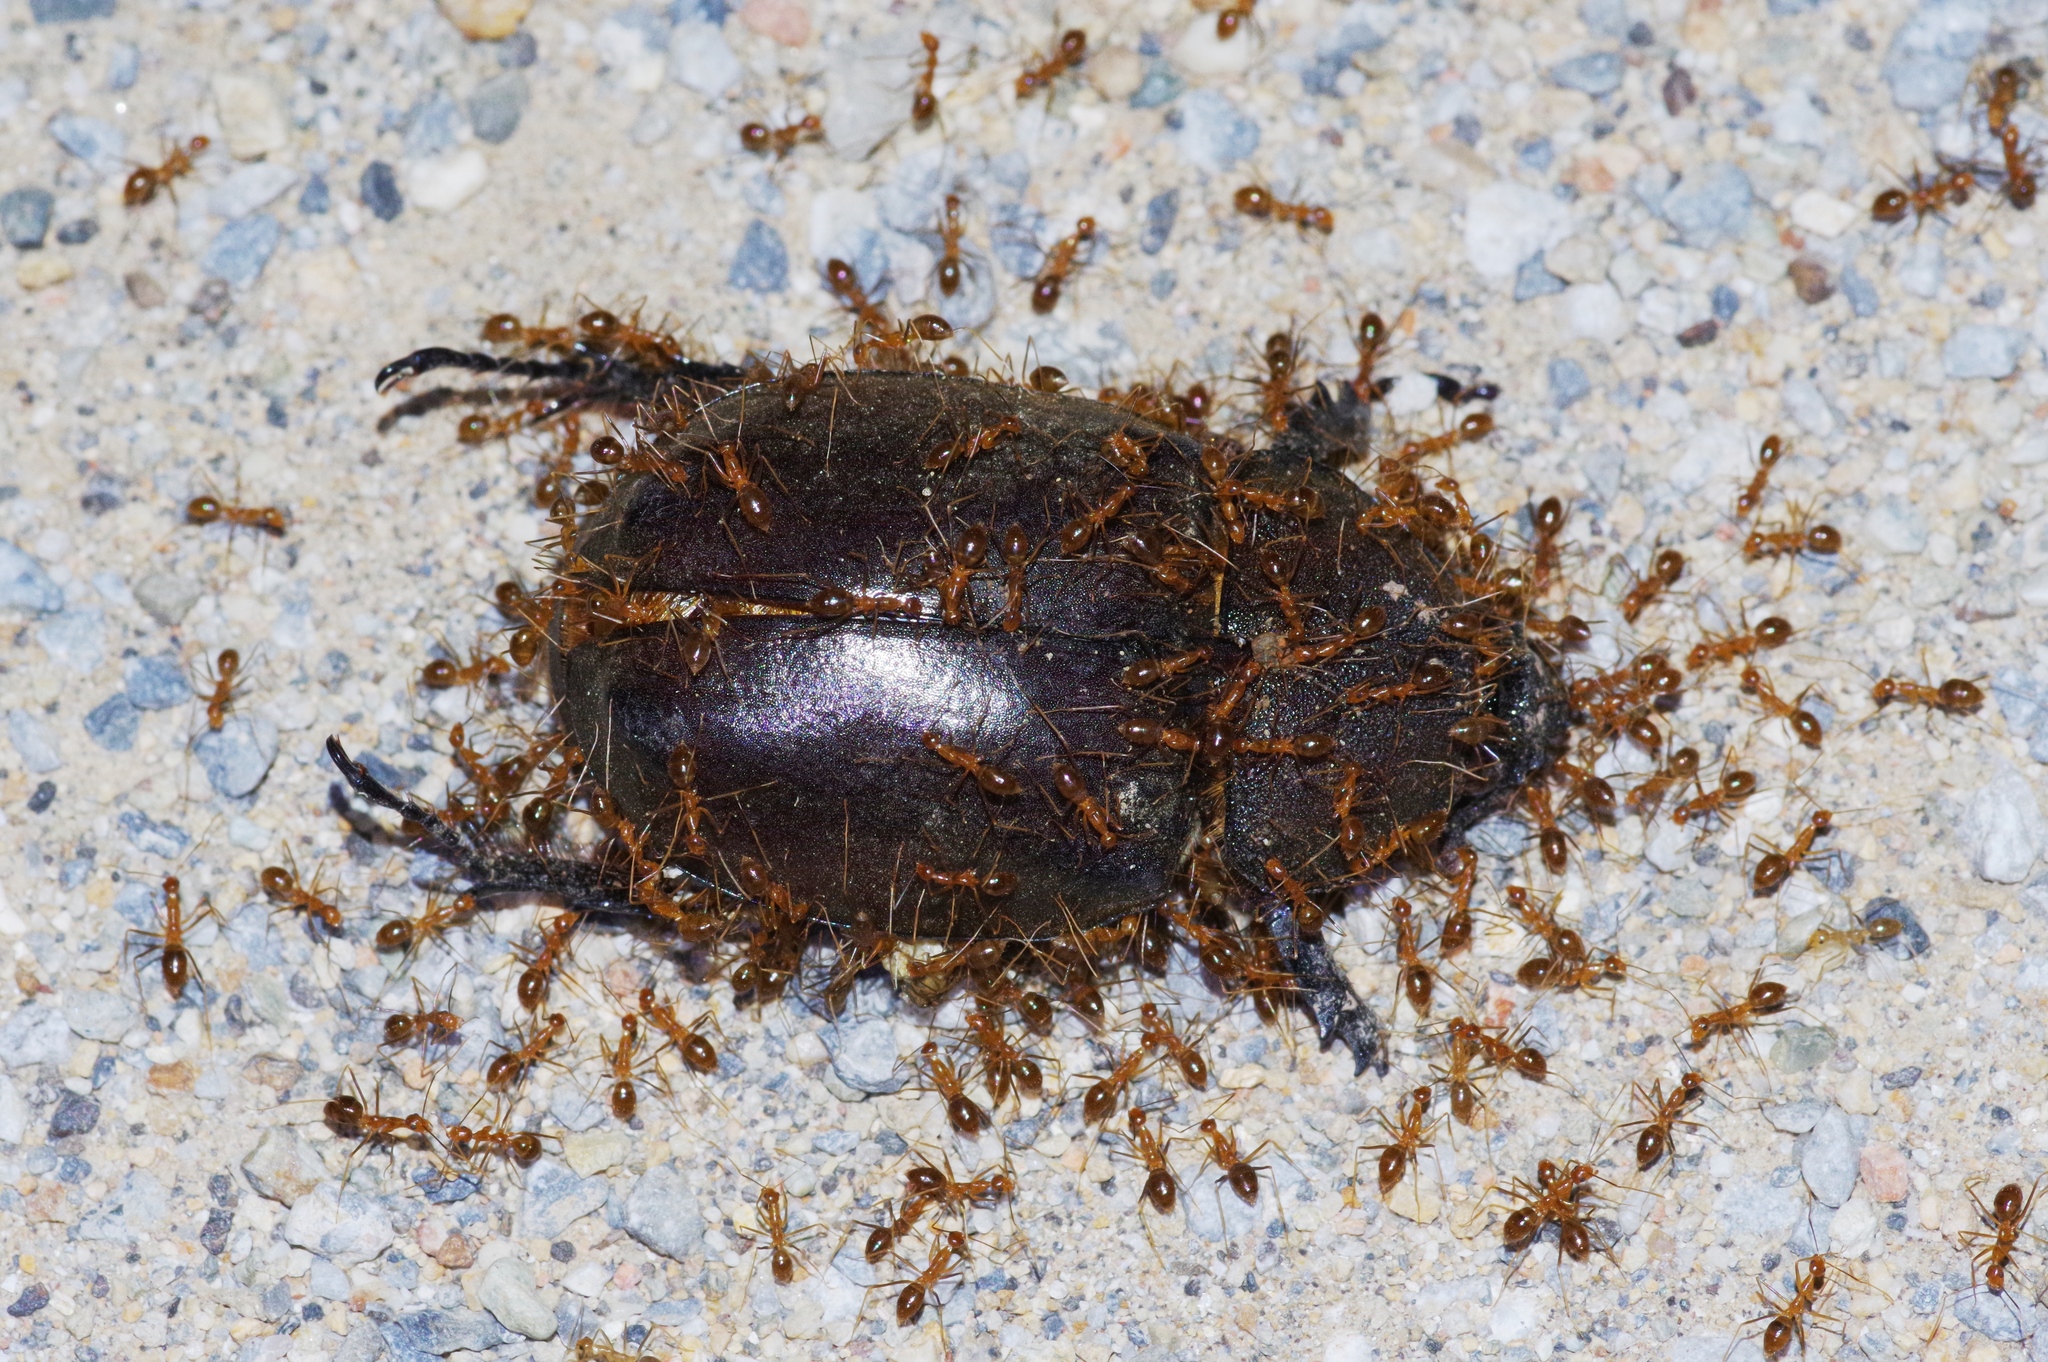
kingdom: Animalia
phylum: Arthropoda
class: Insecta
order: Hymenoptera
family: Formicidae
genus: Anoplolepis
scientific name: Anoplolepis gracilipes
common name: Ant
